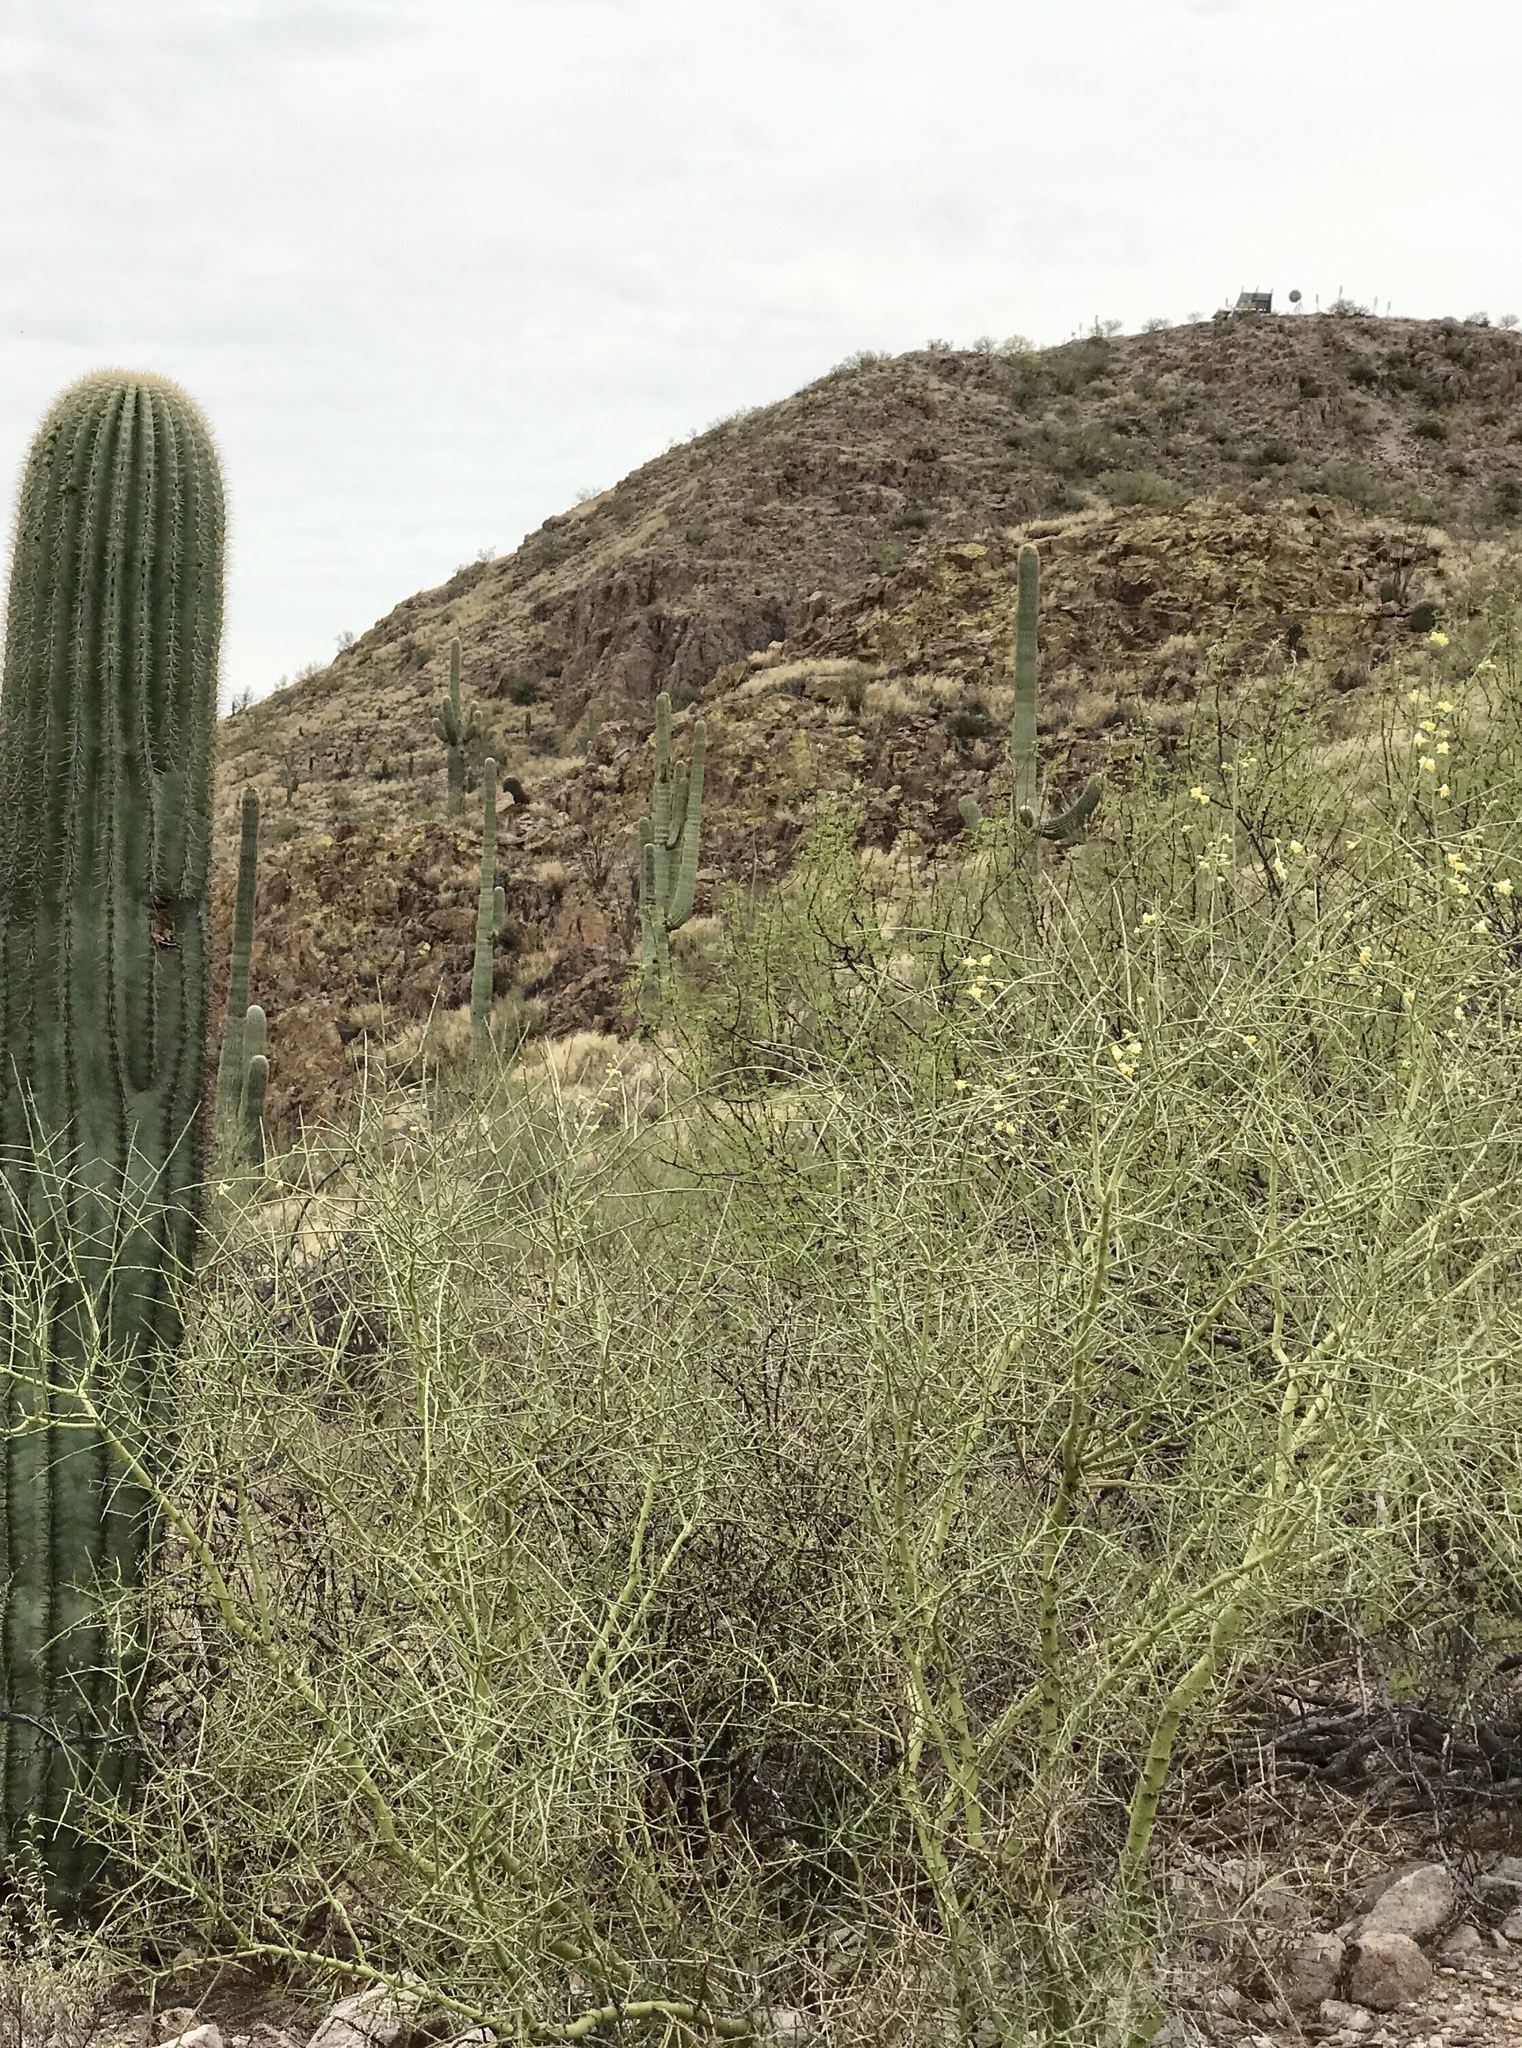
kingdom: Plantae
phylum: Tracheophyta
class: Magnoliopsida
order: Fabales
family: Fabaceae
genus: Parkinsonia
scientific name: Parkinsonia microphylla
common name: Yellow paloverde
